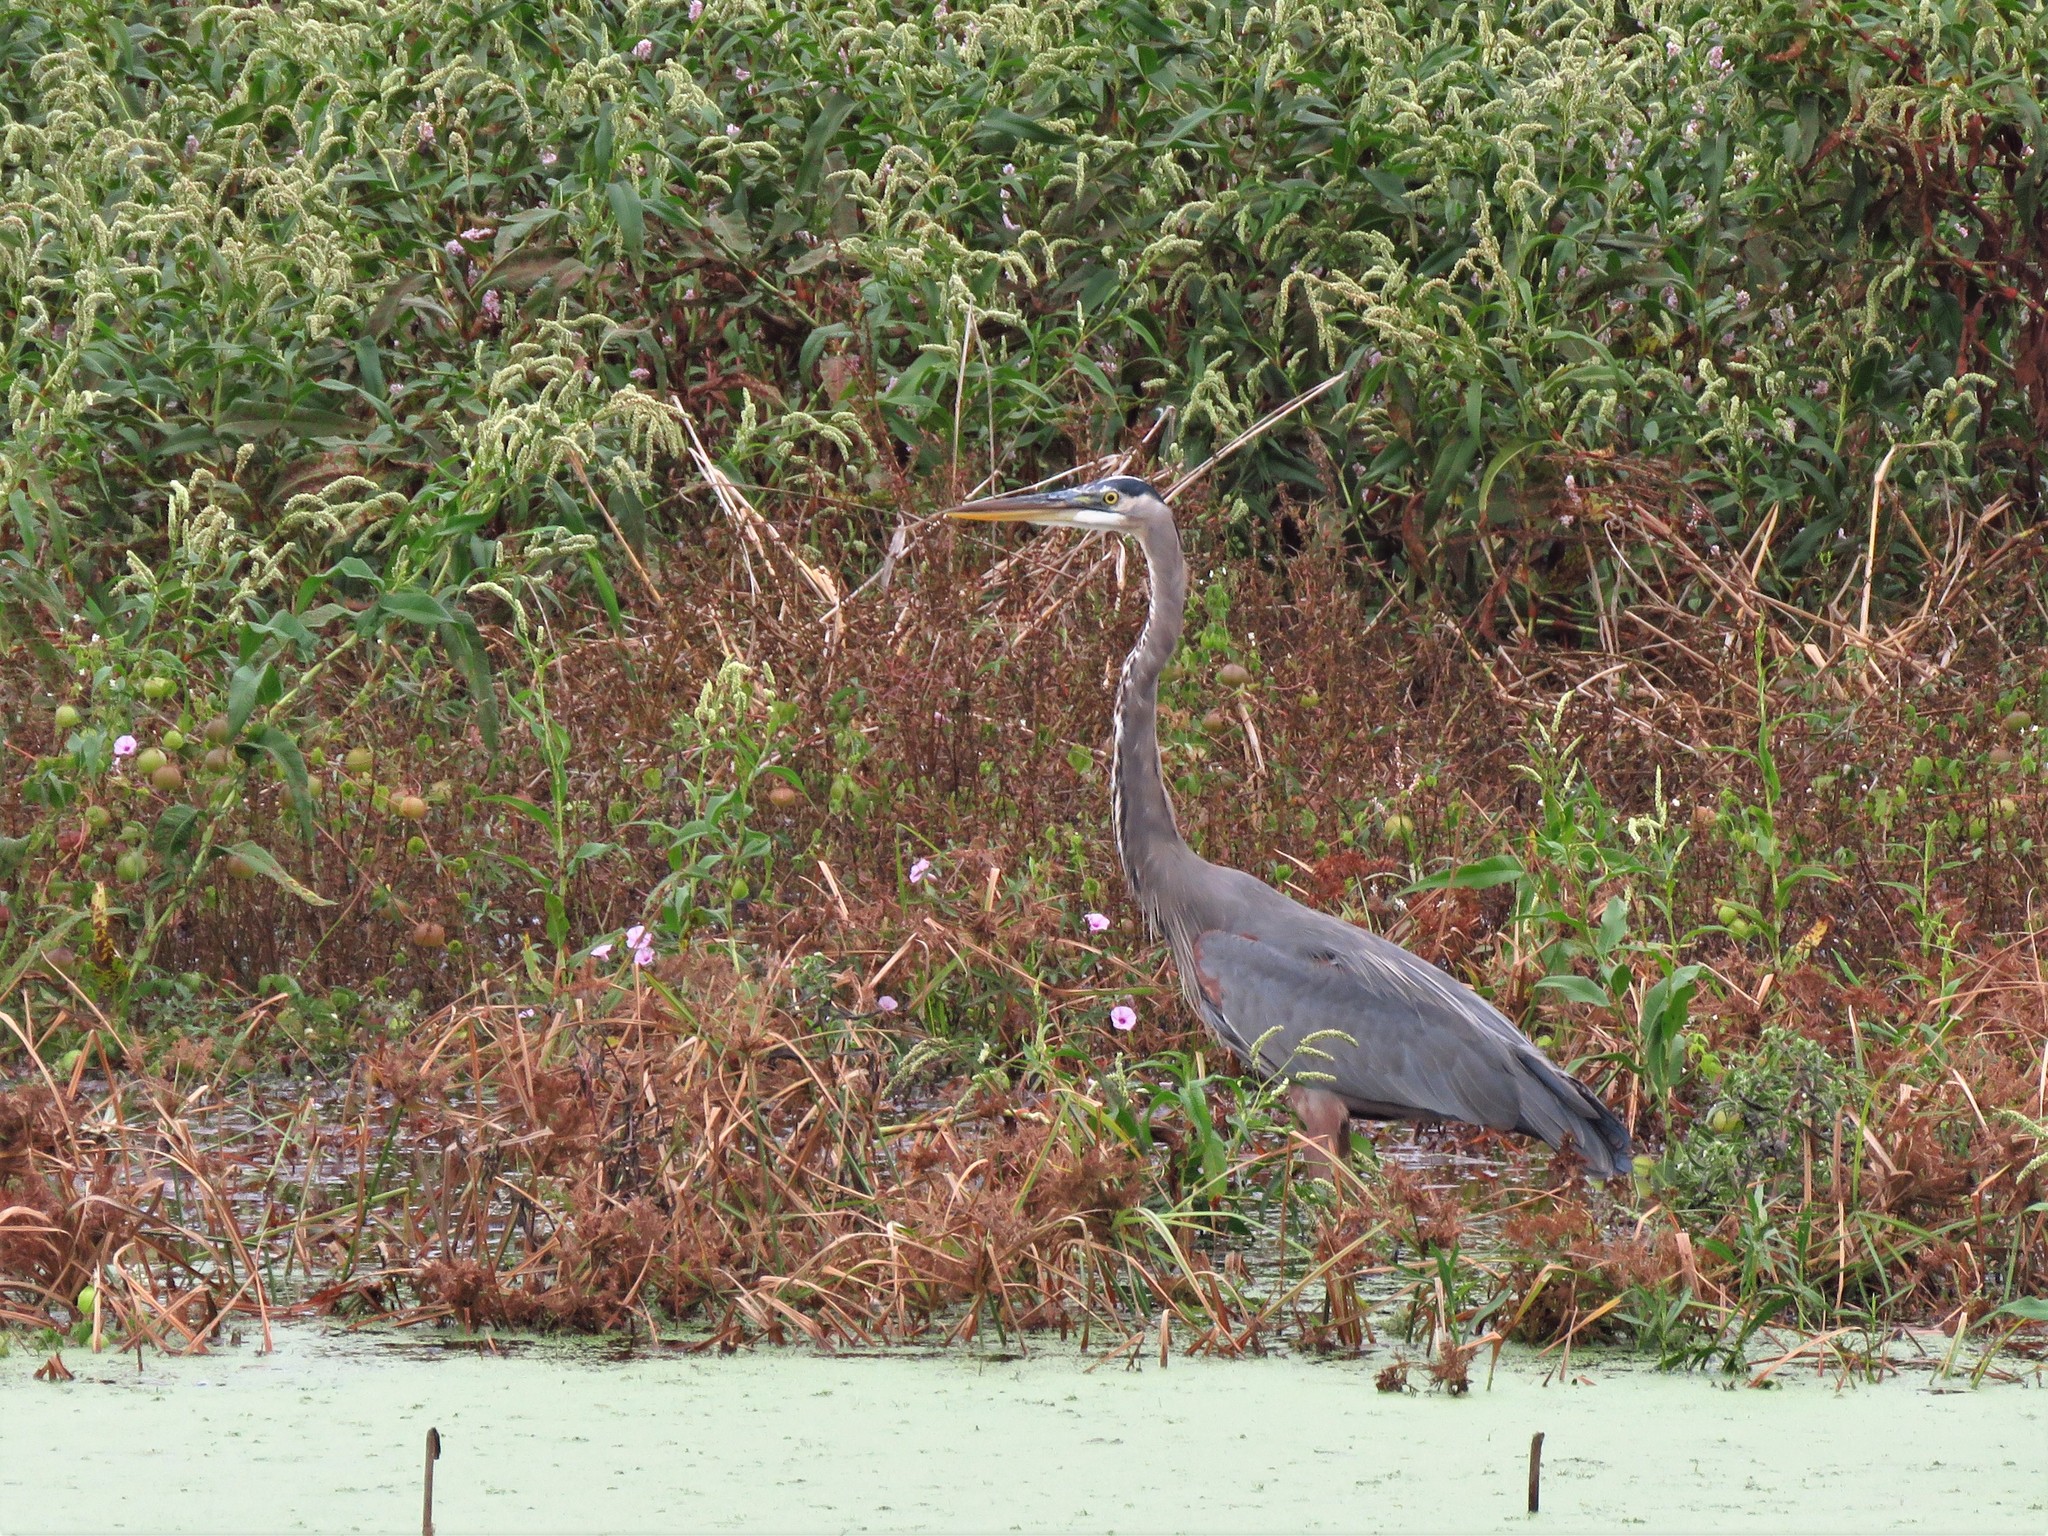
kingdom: Animalia
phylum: Chordata
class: Aves
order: Pelecaniformes
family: Ardeidae
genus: Ardea
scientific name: Ardea herodias
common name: Great blue heron
